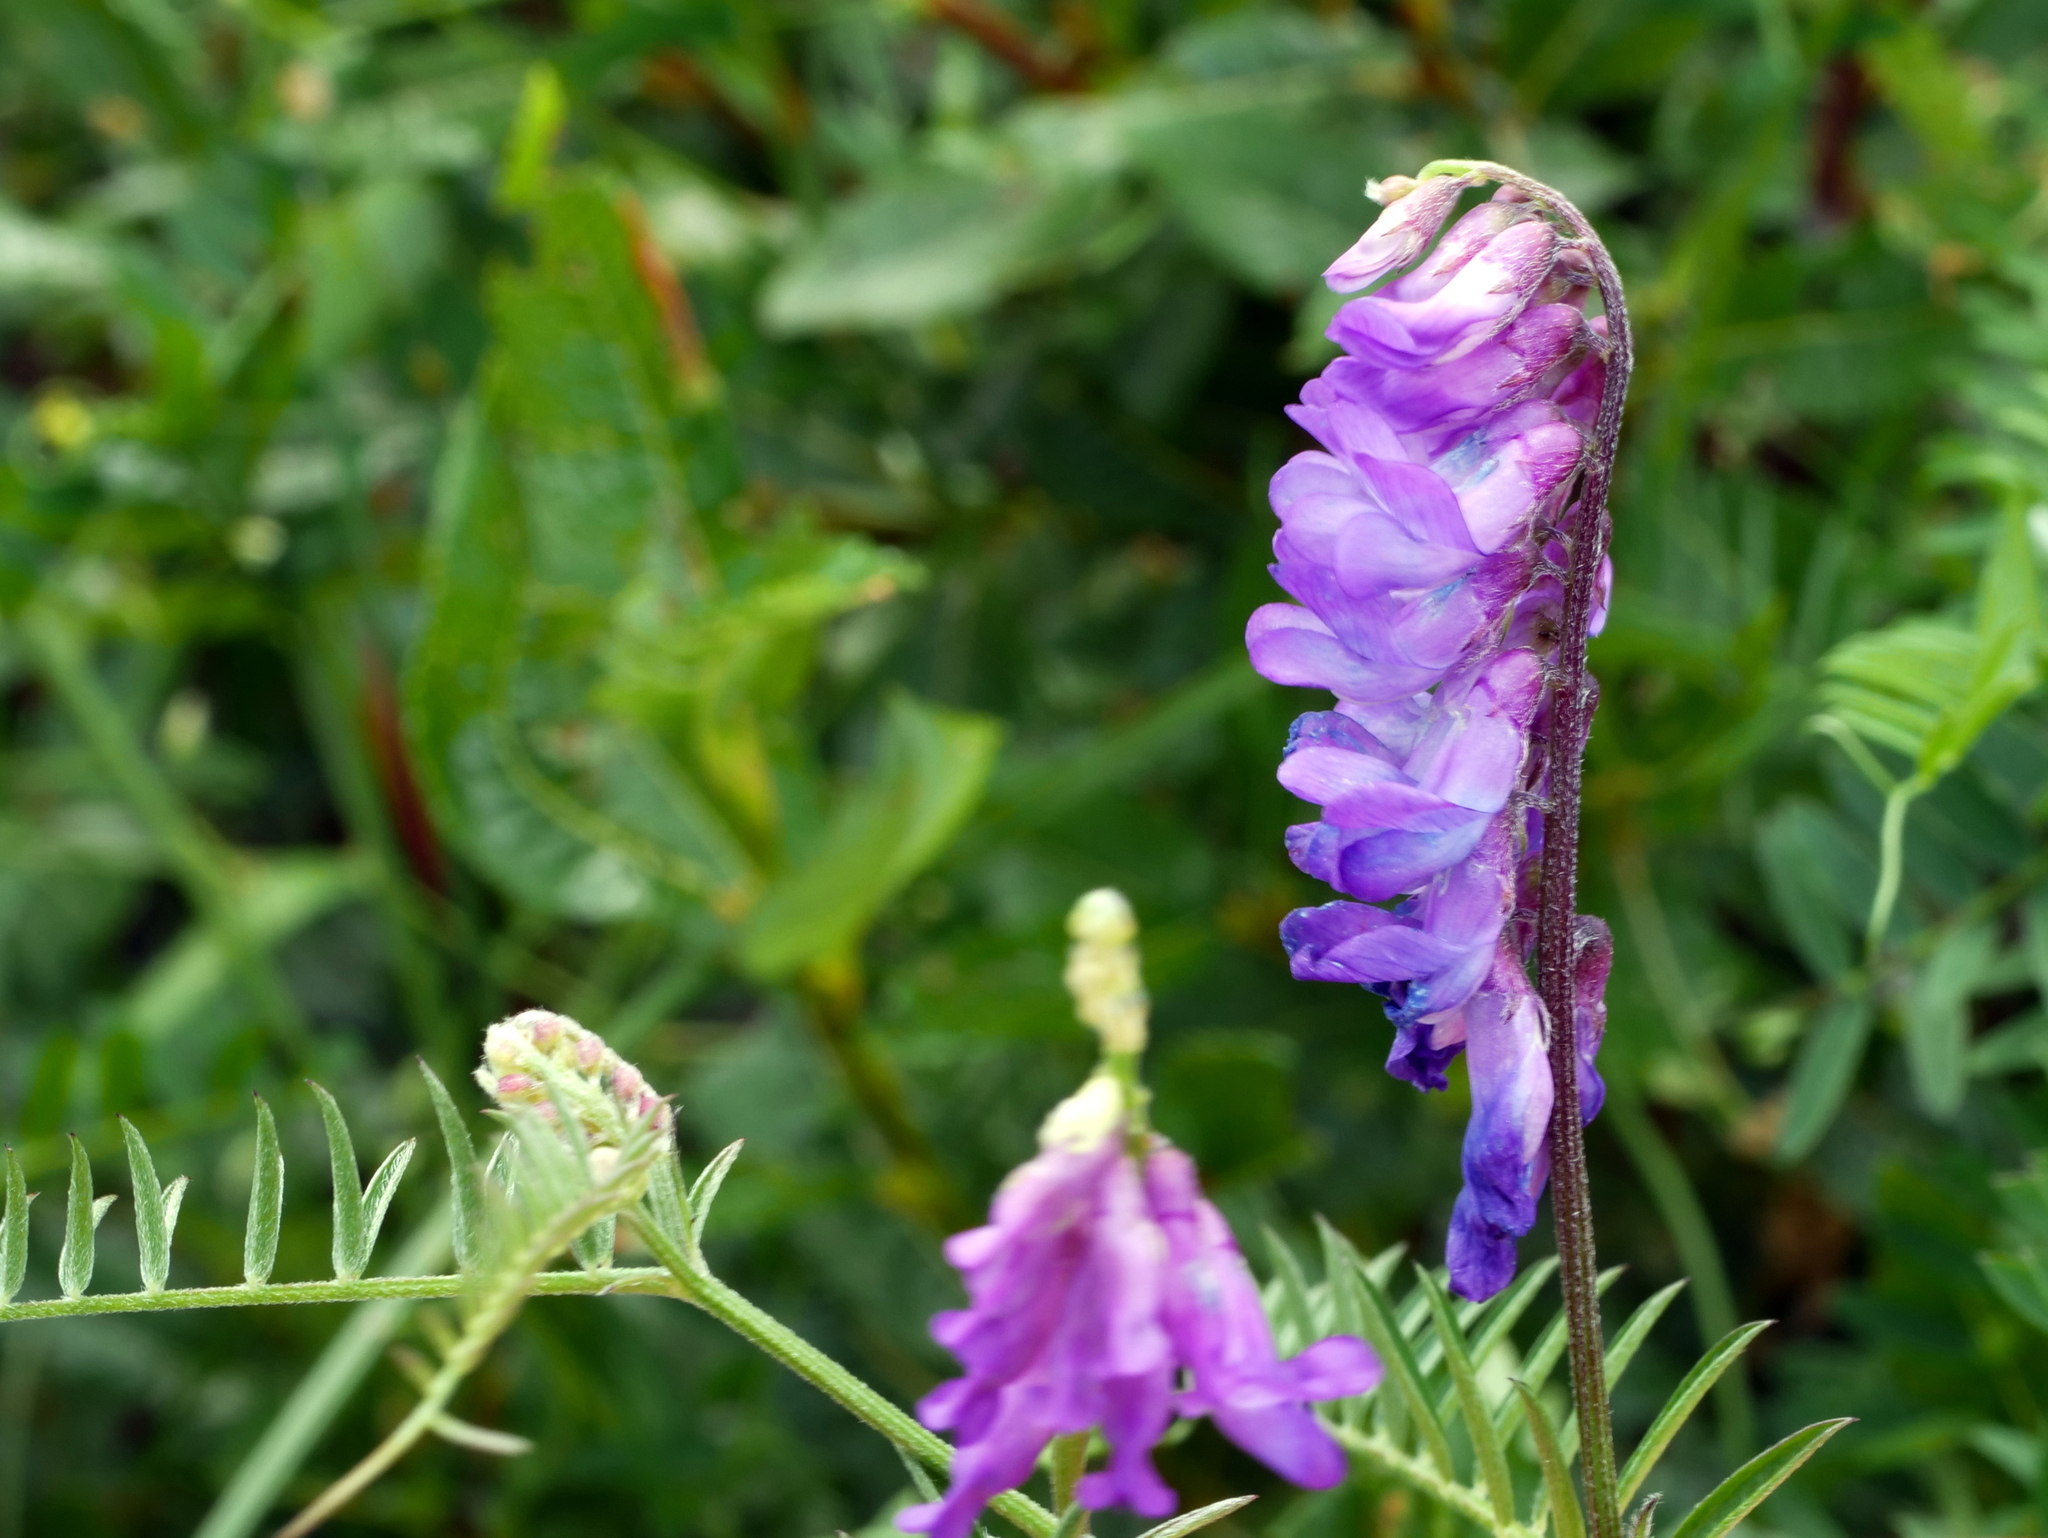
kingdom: Plantae
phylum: Tracheophyta
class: Magnoliopsida
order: Fabales
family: Fabaceae
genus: Vicia
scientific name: Vicia cracca
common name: Bird vetch
